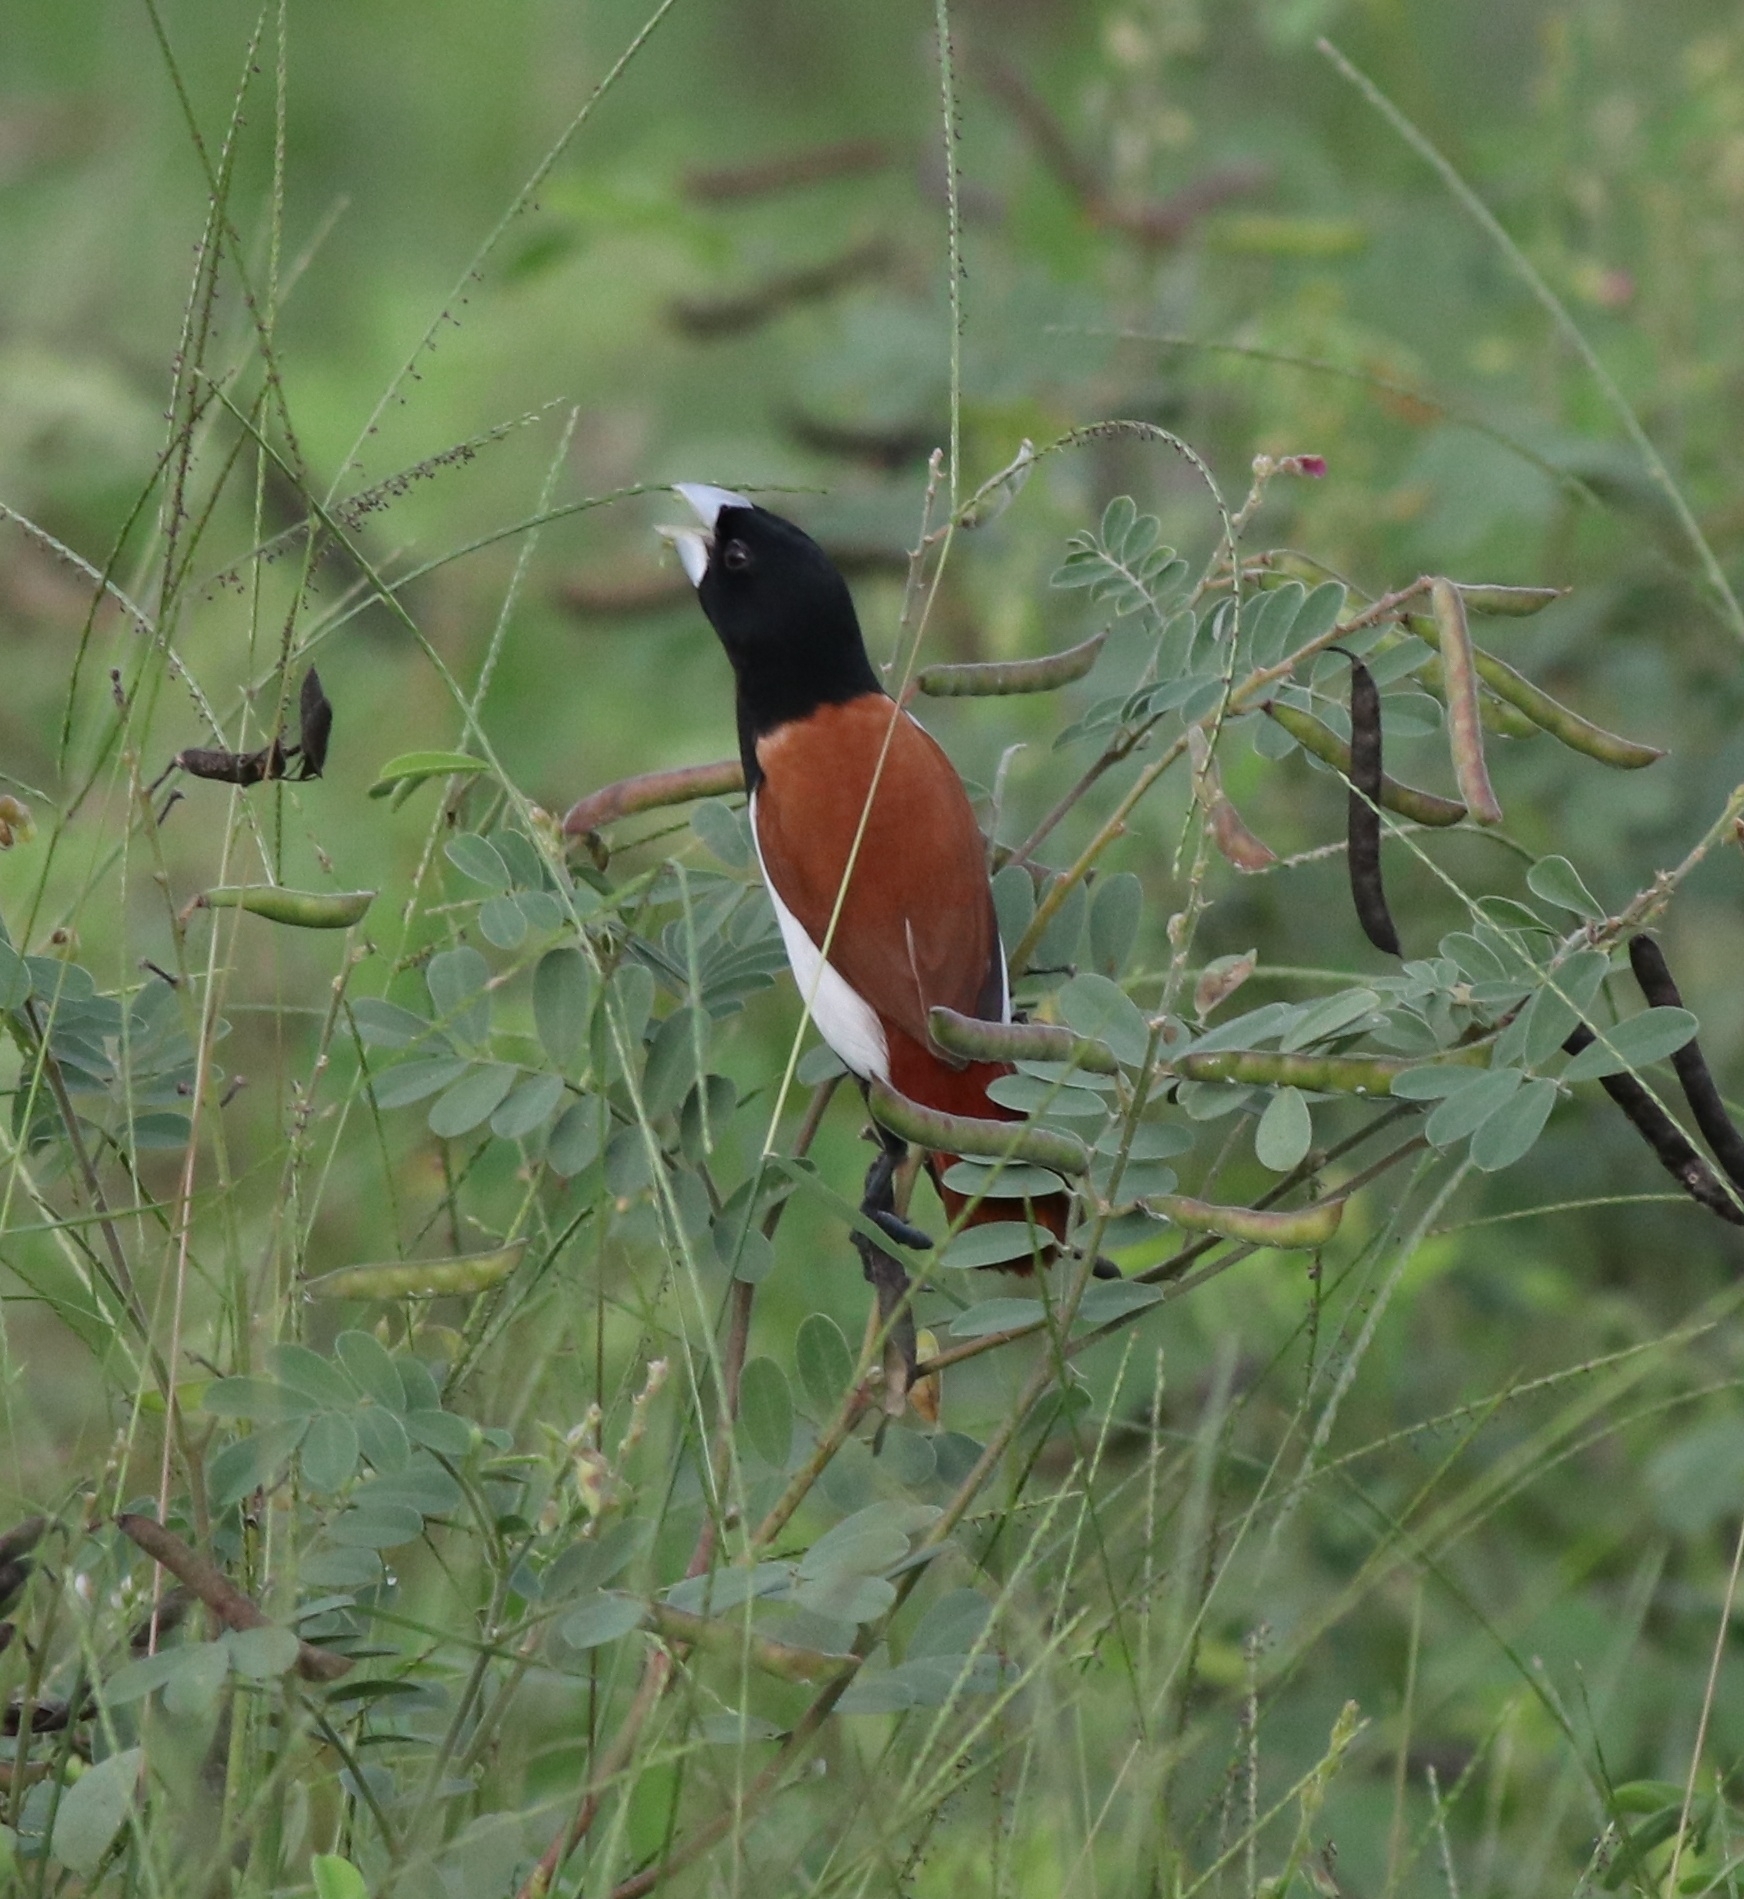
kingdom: Animalia
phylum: Chordata
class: Aves
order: Passeriformes
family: Estrildidae
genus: Lonchura
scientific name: Lonchura malacca
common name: Tricolored munia
